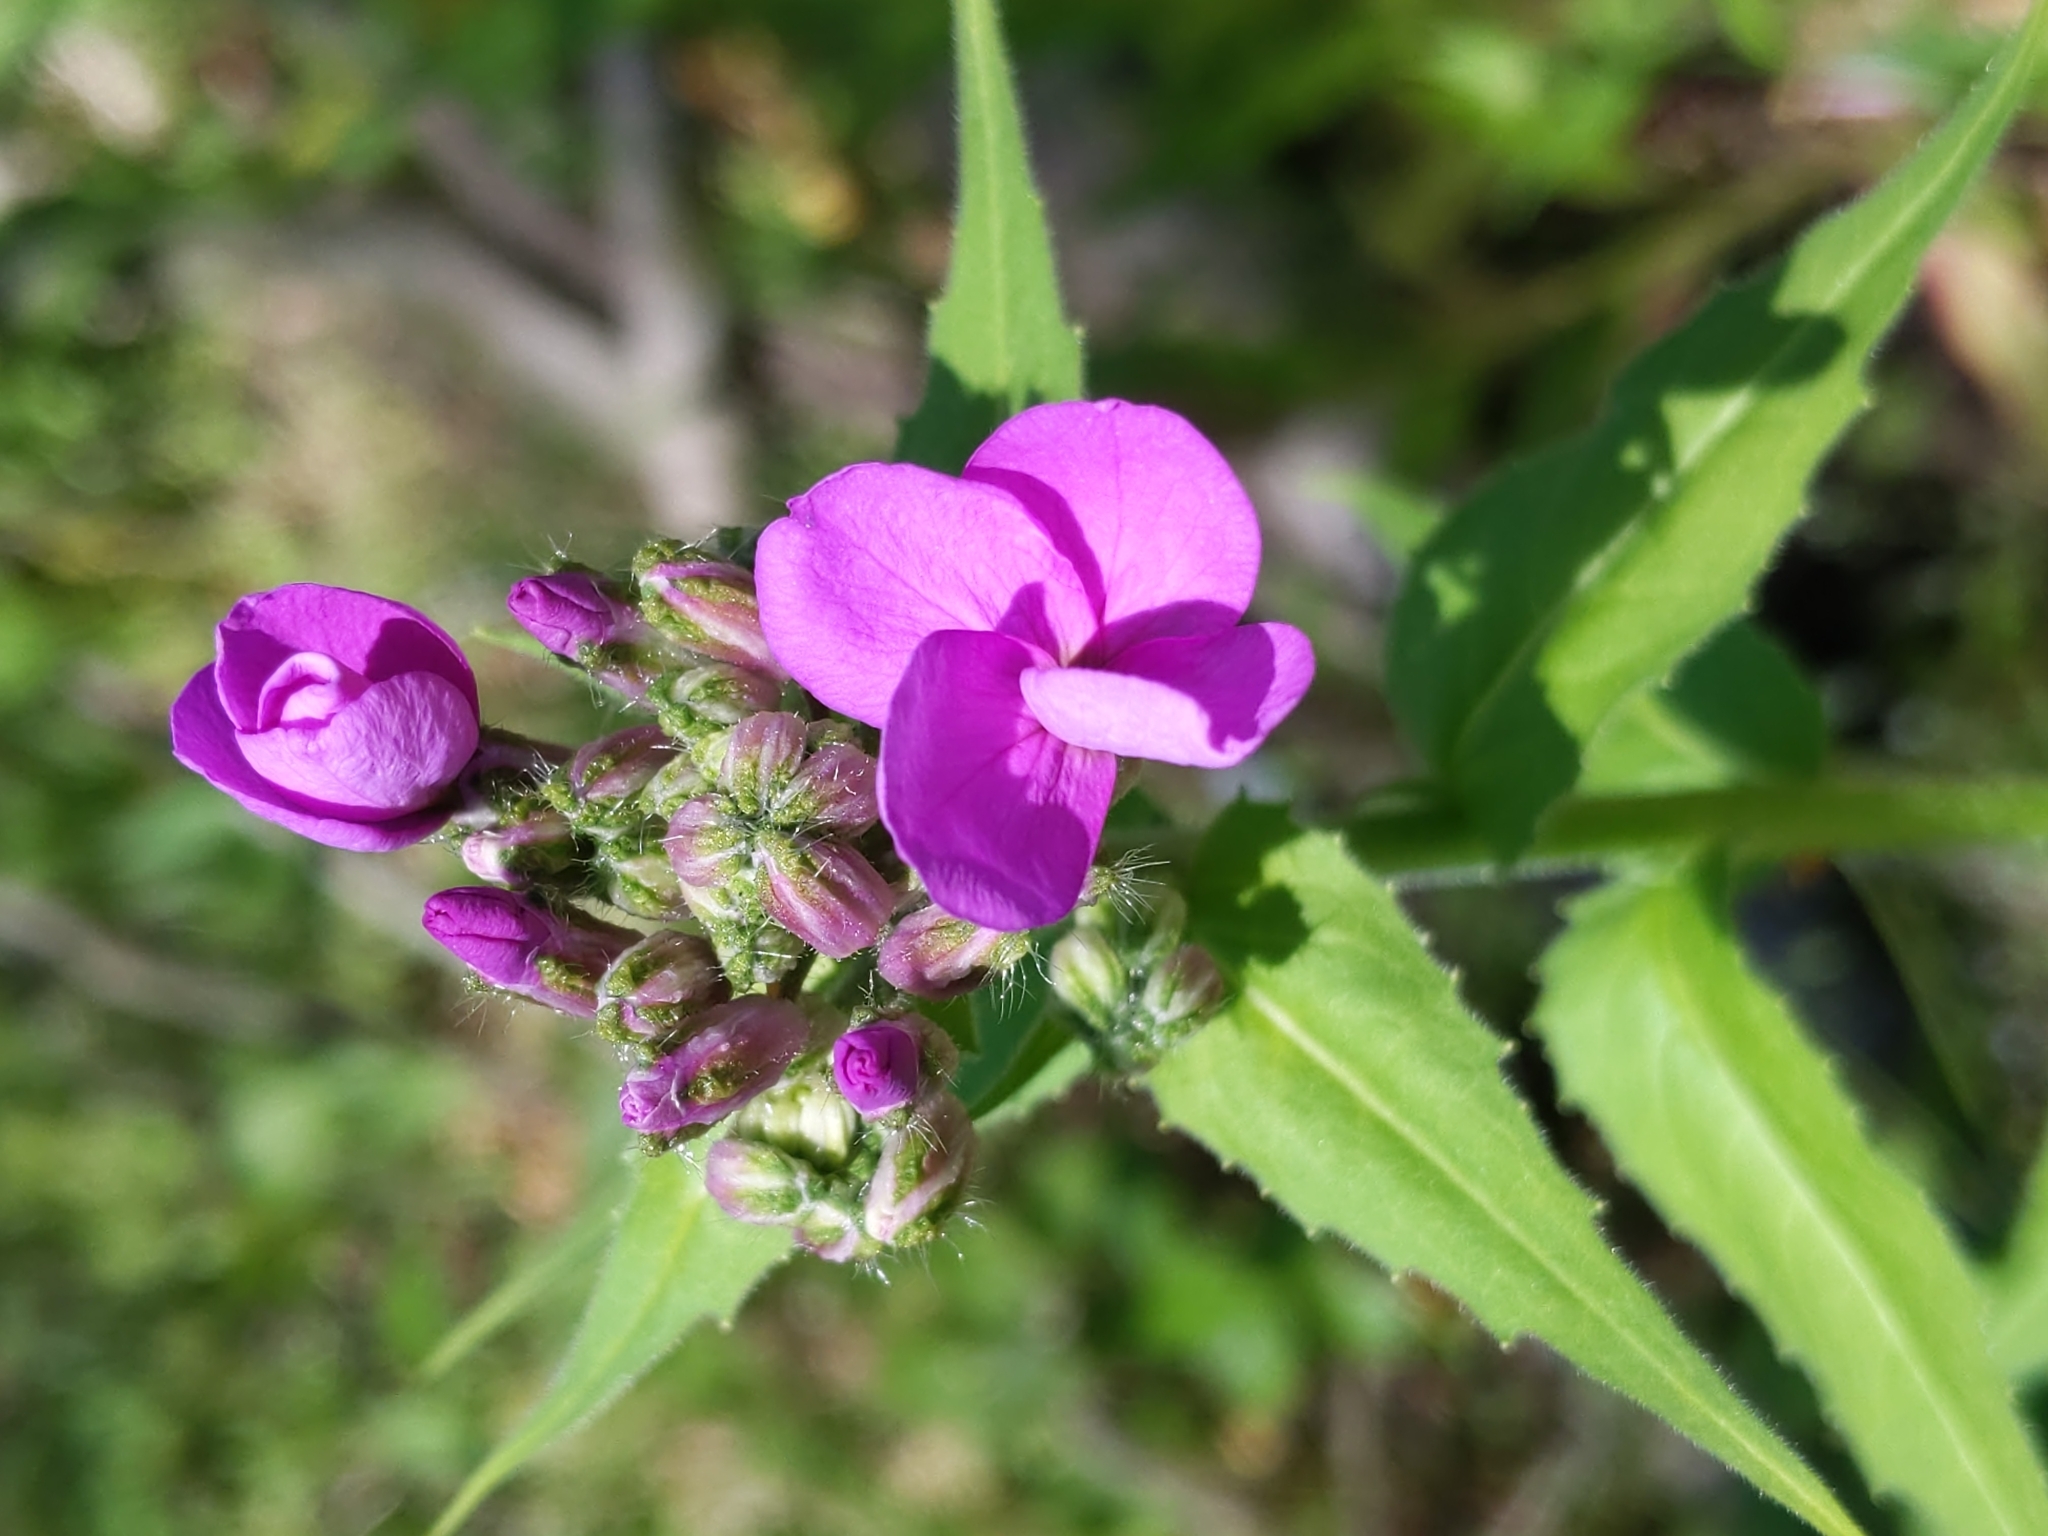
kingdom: Plantae
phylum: Tracheophyta
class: Magnoliopsida
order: Brassicales
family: Brassicaceae
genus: Hesperis
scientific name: Hesperis matronalis
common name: Dame's-violet
